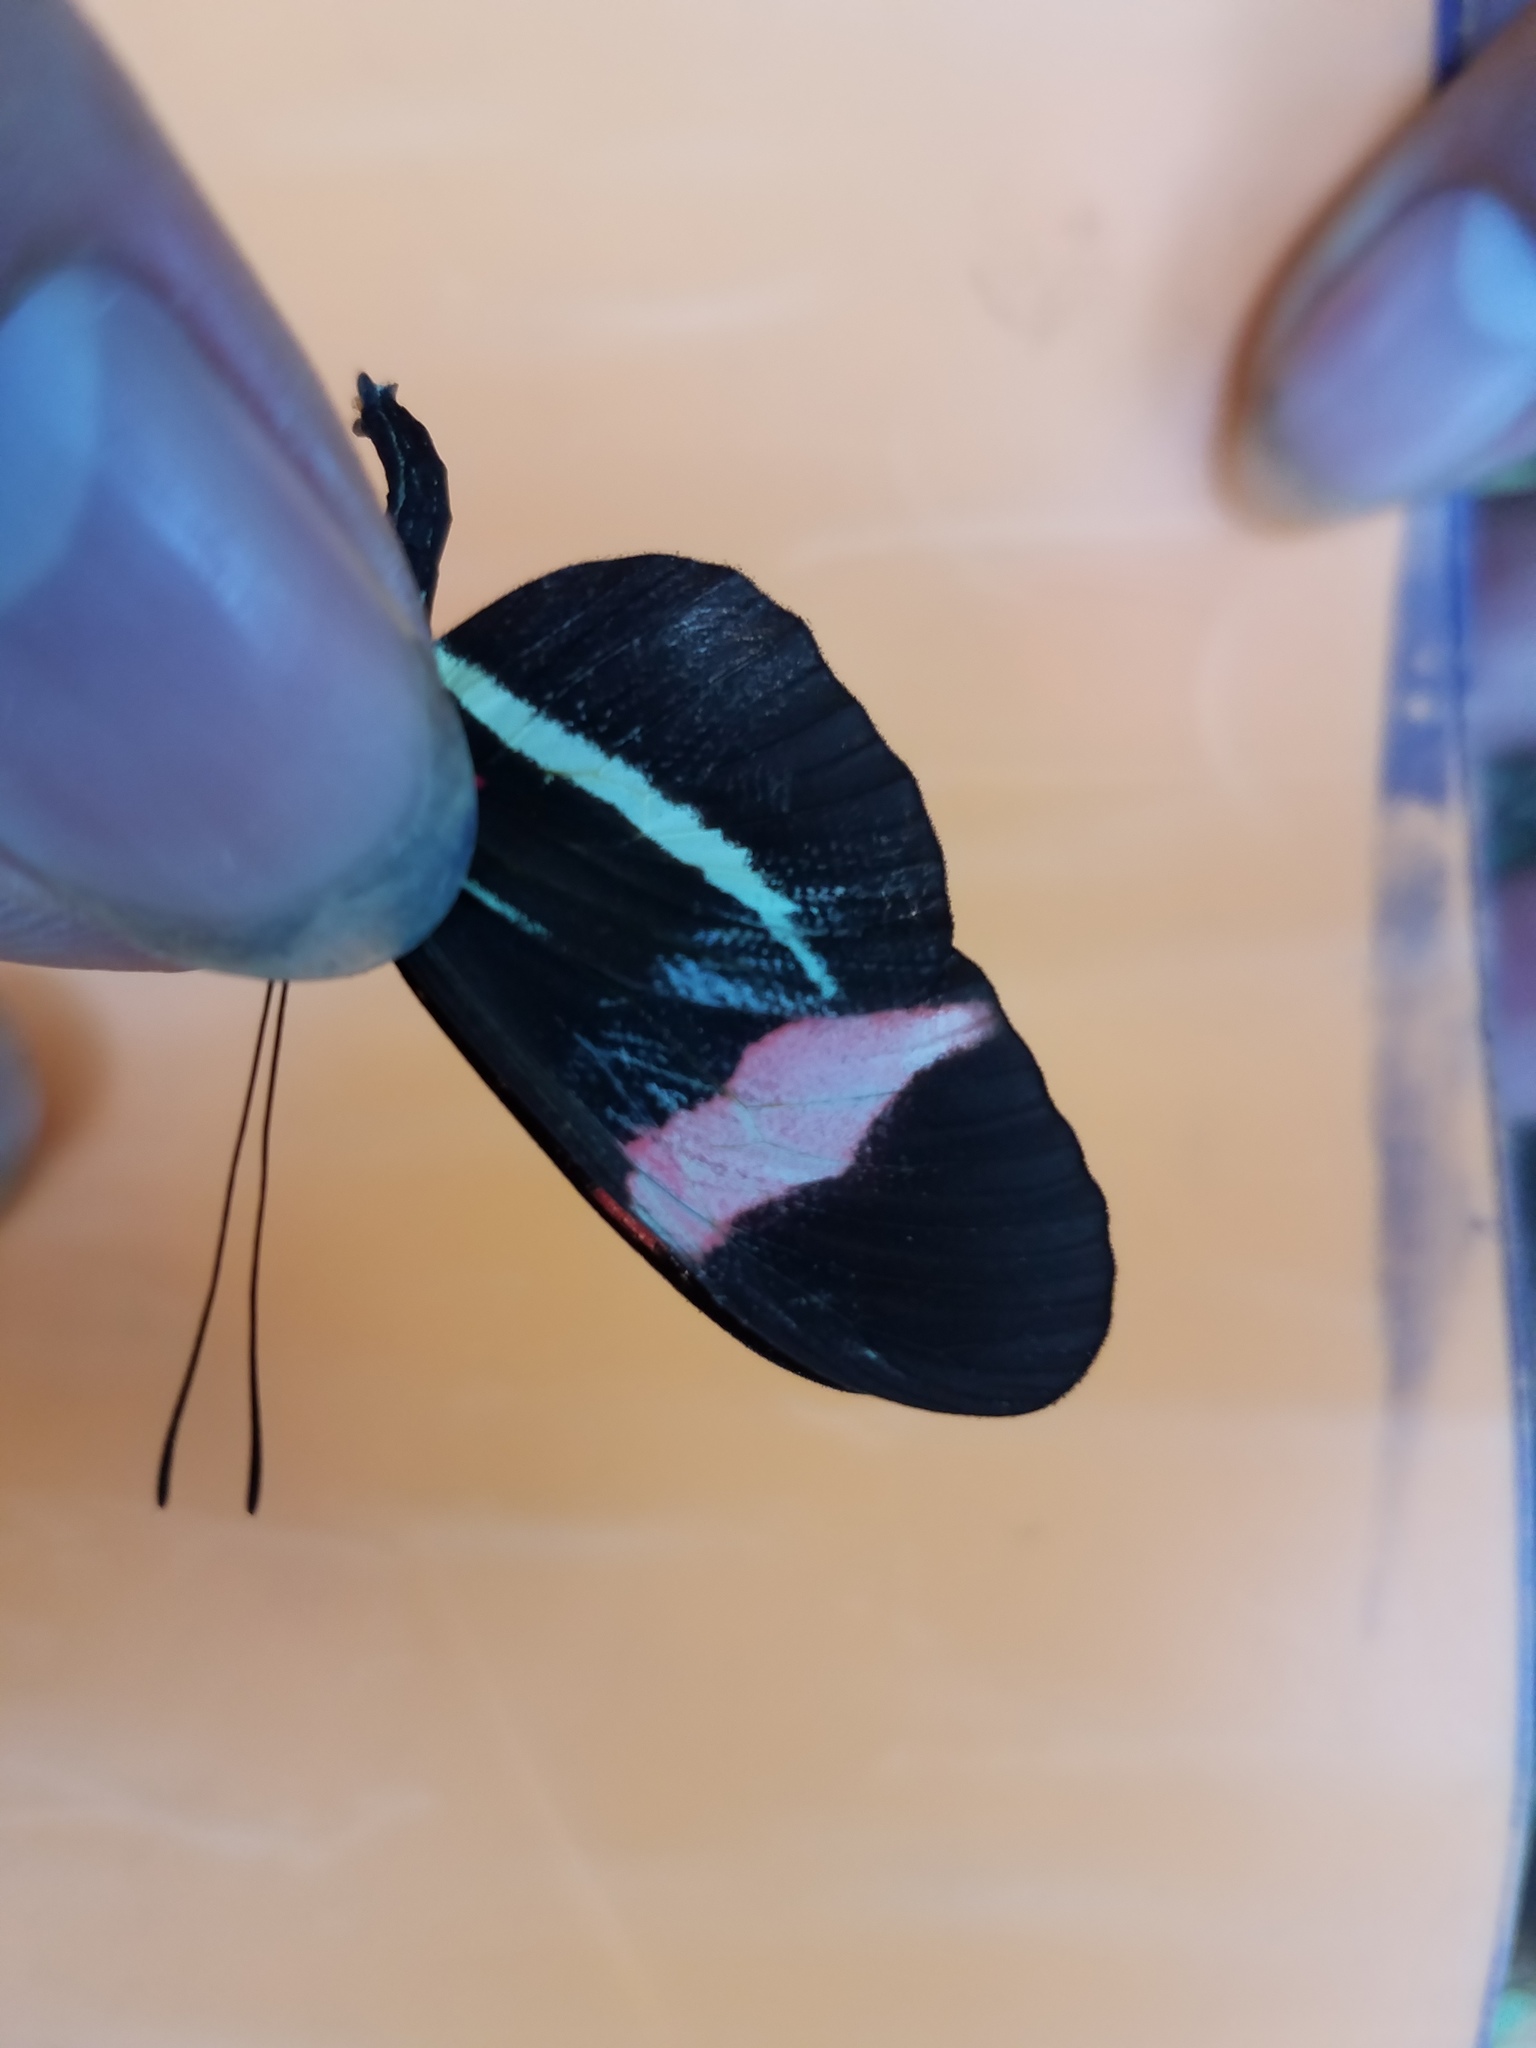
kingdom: Animalia
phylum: Arthropoda
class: Insecta
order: Lepidoptera
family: Nymphalidae
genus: Tirumala
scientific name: Tirumala petiverana
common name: Blue monarch
